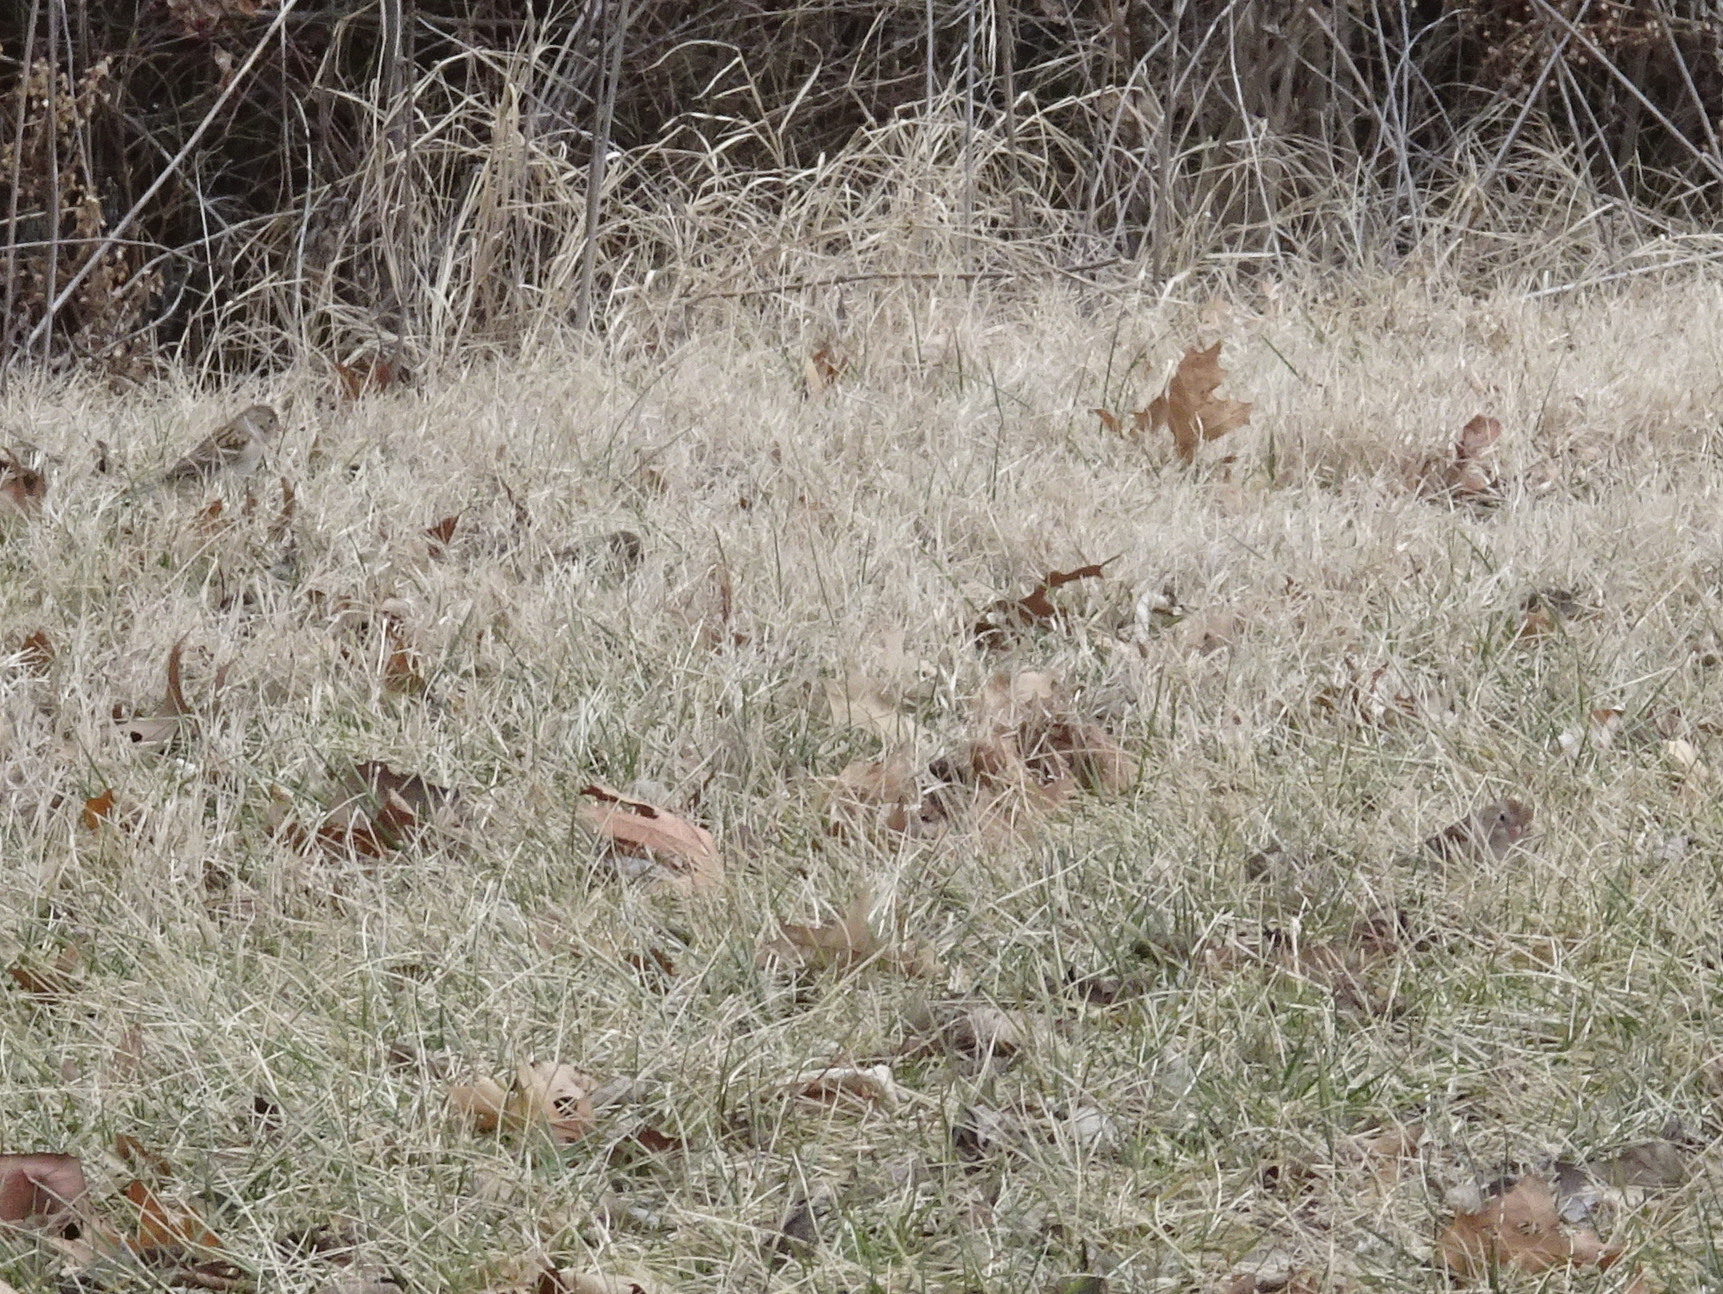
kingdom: Animalia
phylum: Chordata
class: Aves
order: Passeriformes
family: Passerellidae
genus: Spizella
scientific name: Spizella pusilla
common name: Field sparrow
